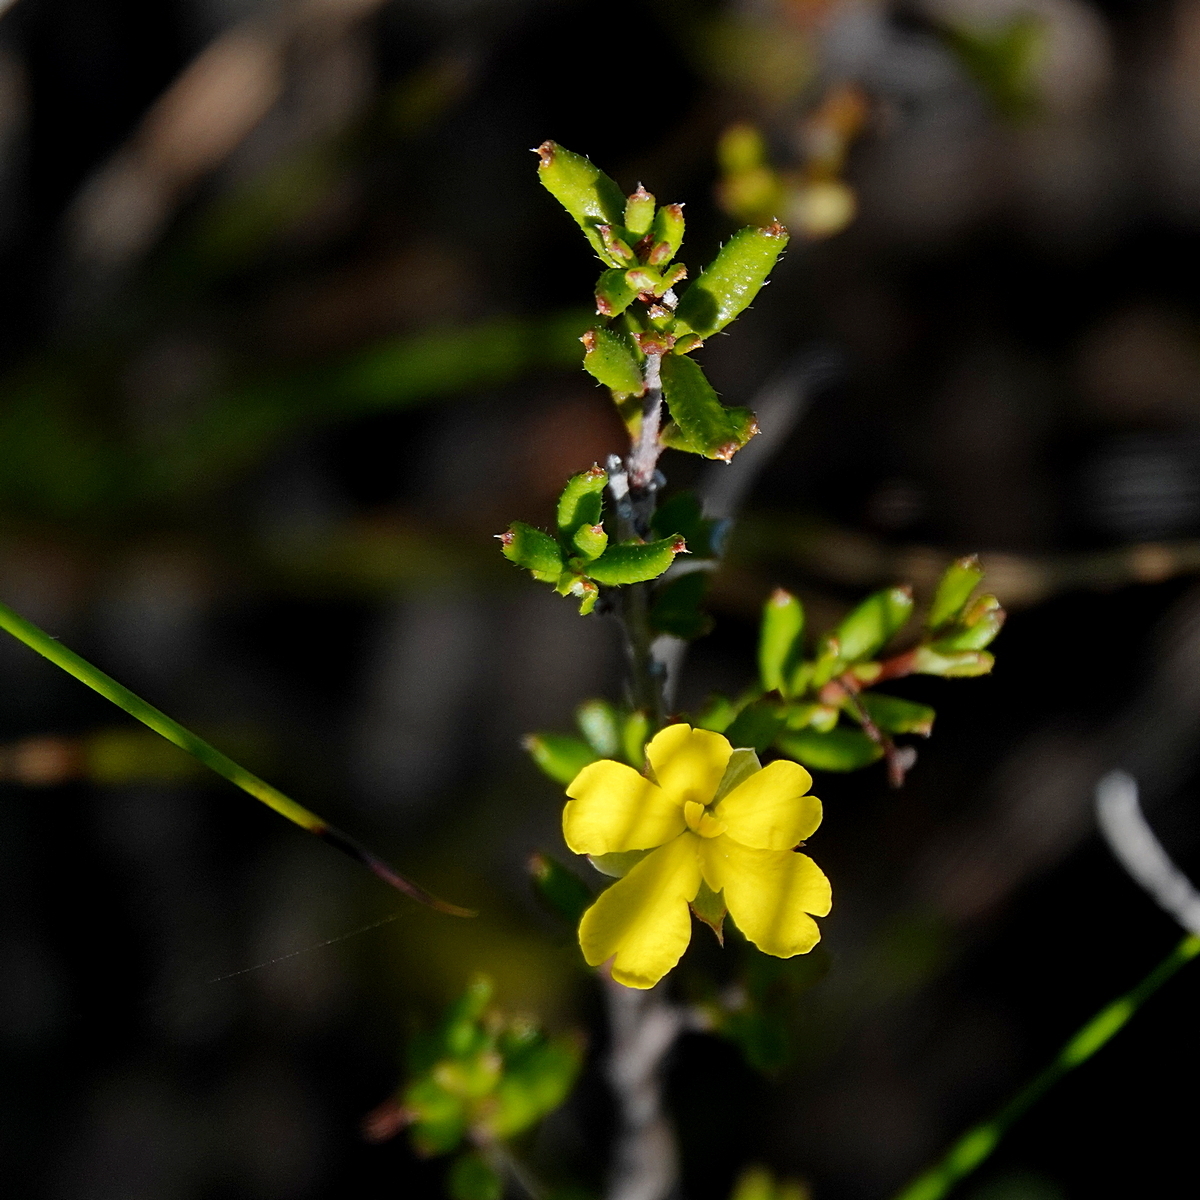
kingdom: Plantae
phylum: Tracheophyta
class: Magnoliopsida
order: Dilleniales
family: Dilleniaceae
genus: Hibbertia
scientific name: Hibbertia empetrifolia
